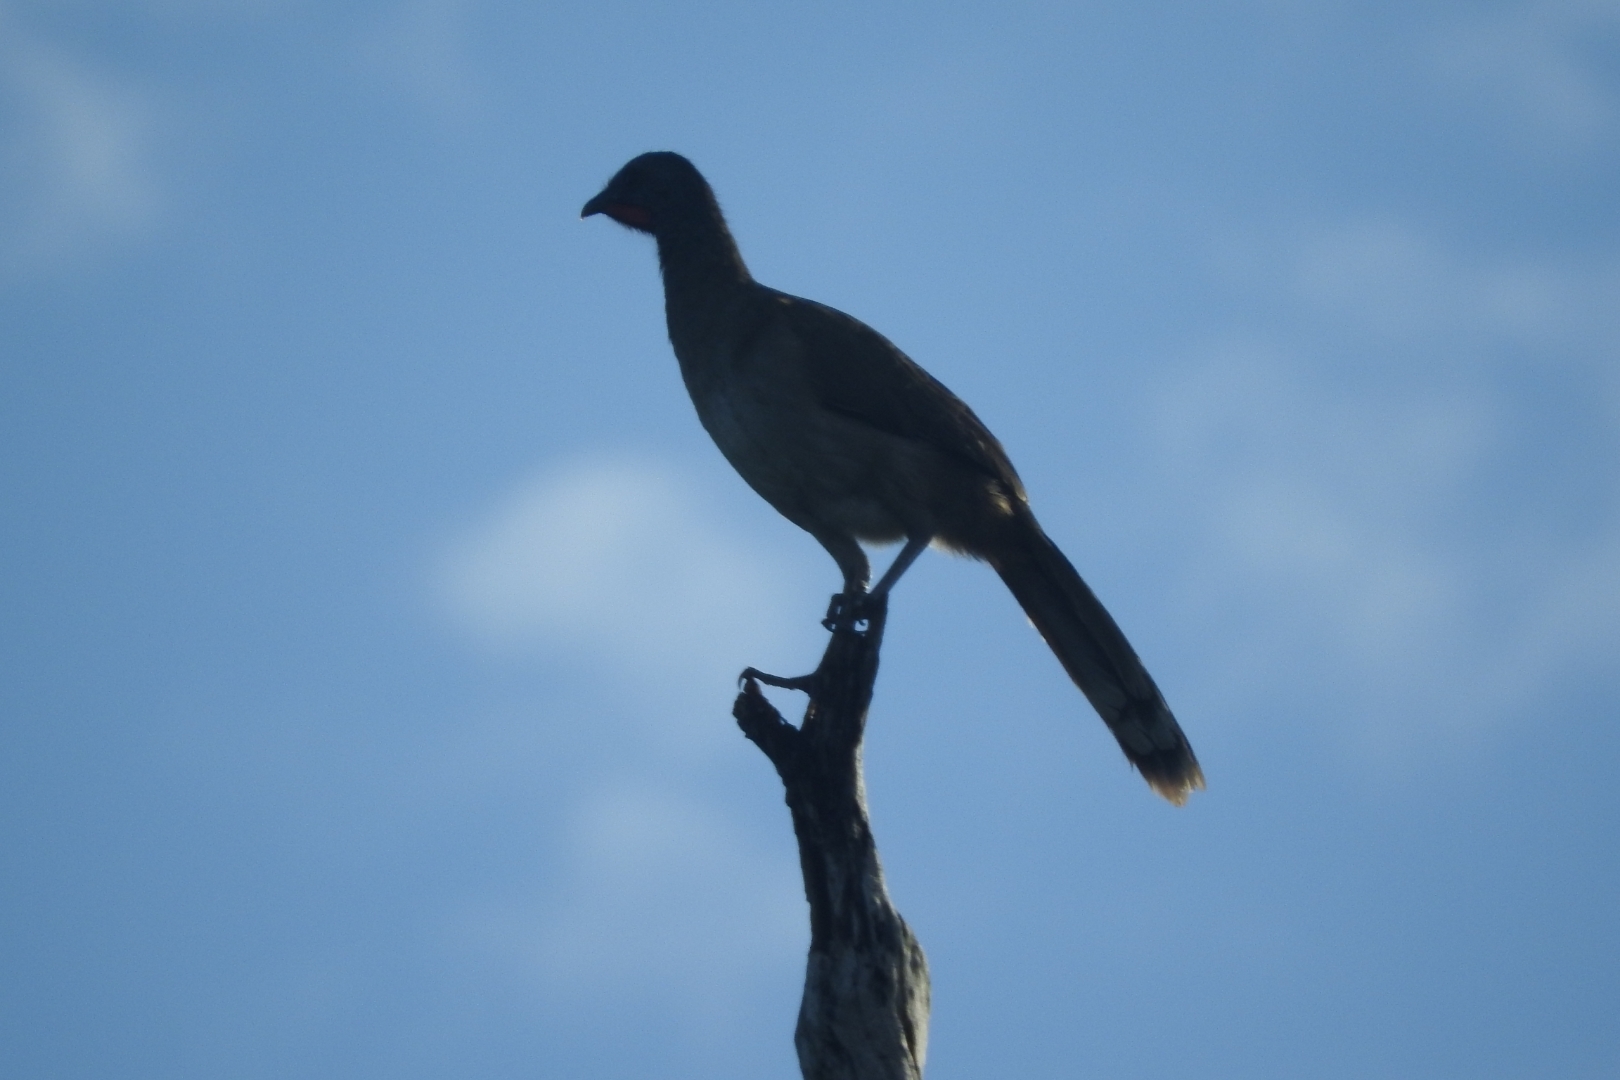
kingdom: Animalia
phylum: Chordata
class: Aves
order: Galliformes
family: Cracidae
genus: Ortalis
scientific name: Ortalis vetula
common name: Plain chachalaca
